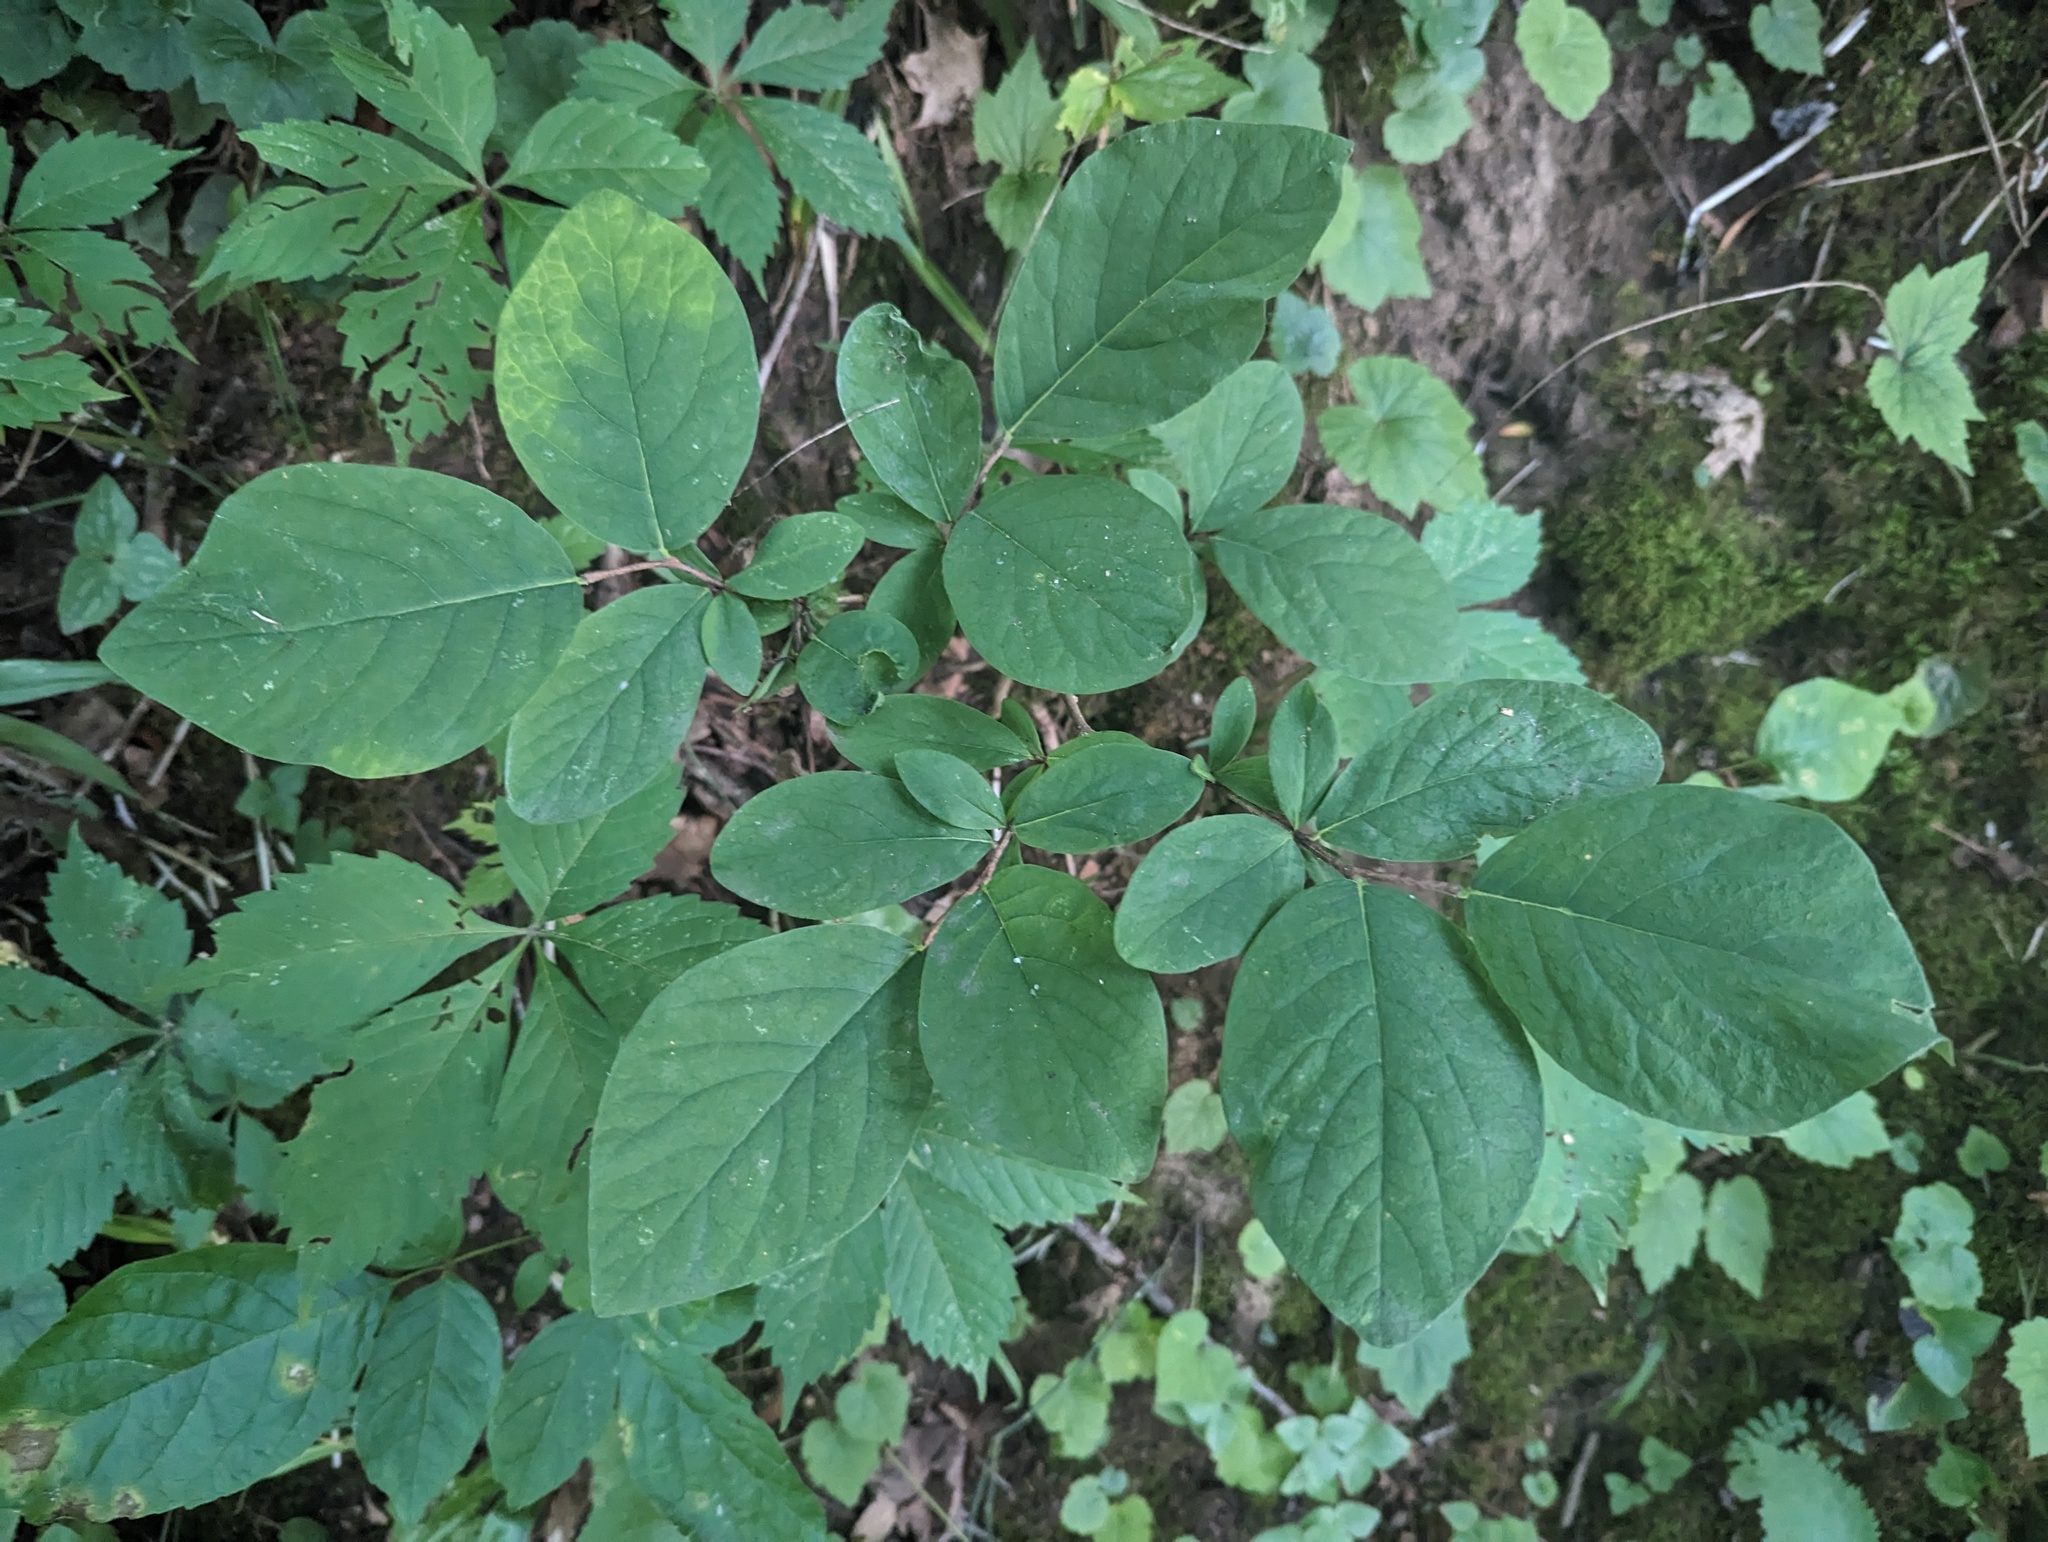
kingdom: Plantae
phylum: Tracheophyta
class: Magnoliopsida
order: Malvales
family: Thymelaeaceae
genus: Dirca
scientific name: Dirca palustris
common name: Leatherwood
